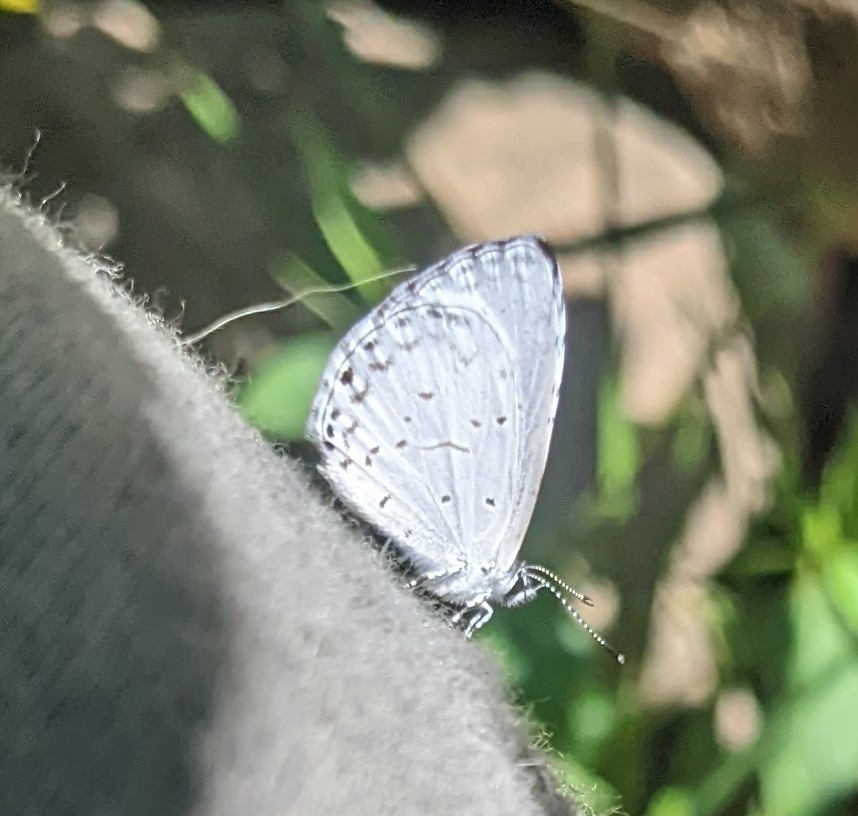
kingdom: Animalia
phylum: Arthropoda
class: Insecta
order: Lepidoptera
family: Lycaenidae
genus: Cyaniris
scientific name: Cyaniris neglecta
